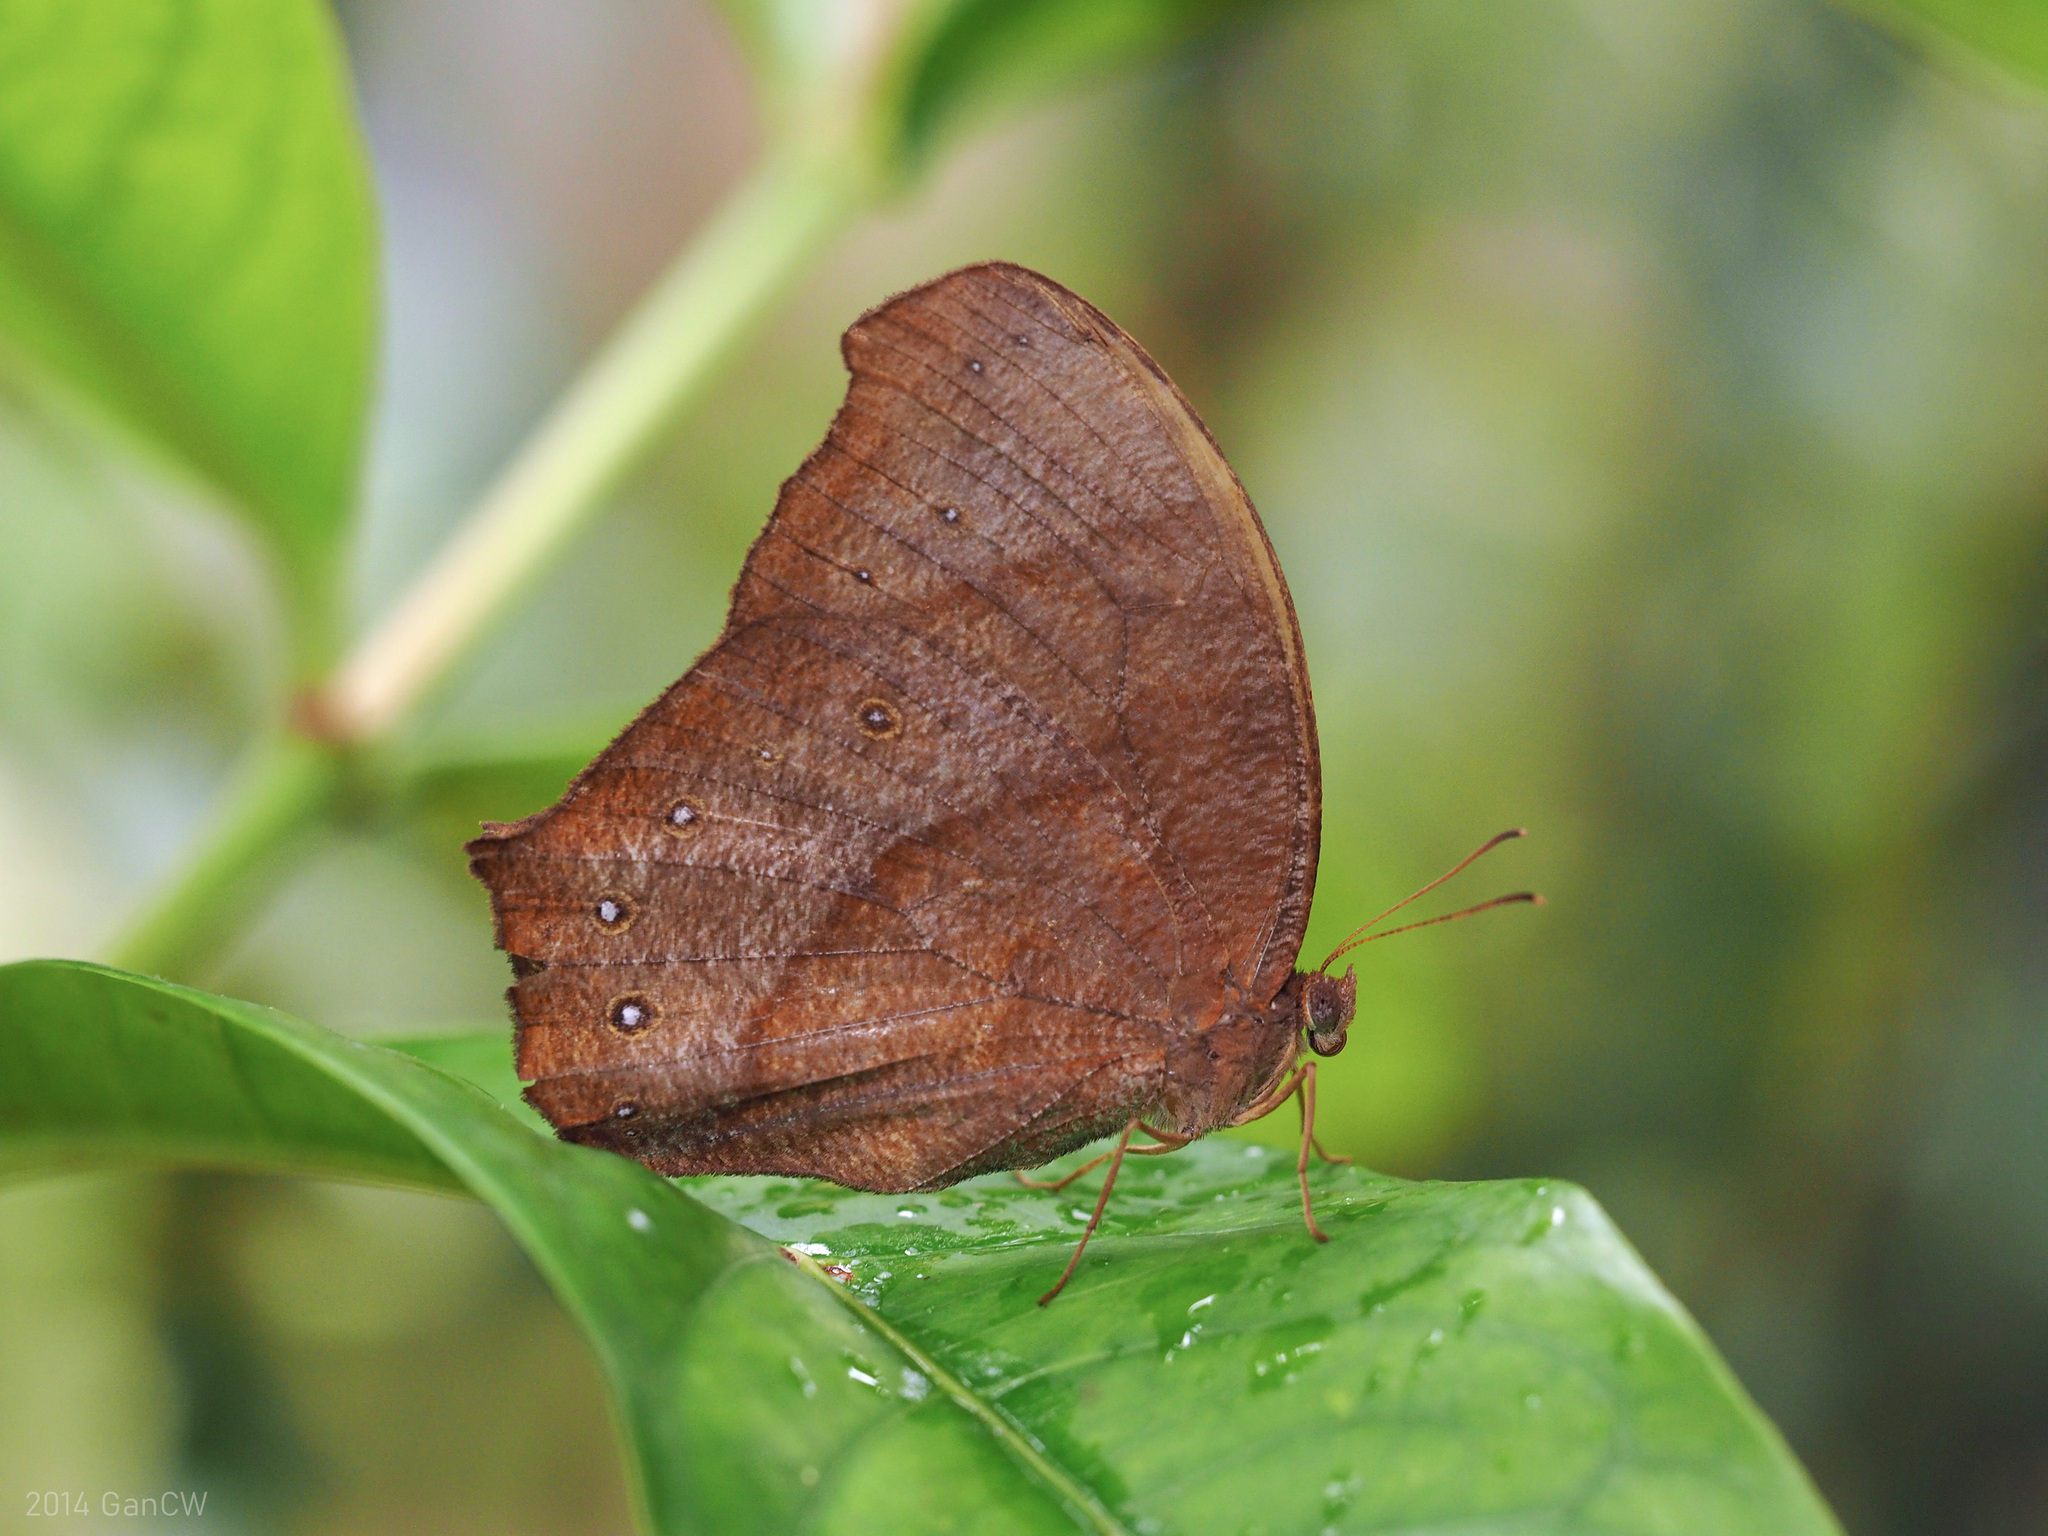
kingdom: Animalia
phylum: Arthropoda
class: Insecta
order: Lepidoptera
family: Nymphalidae
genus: Melanitis
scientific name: Melanitis phedima
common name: Dark evening brown
